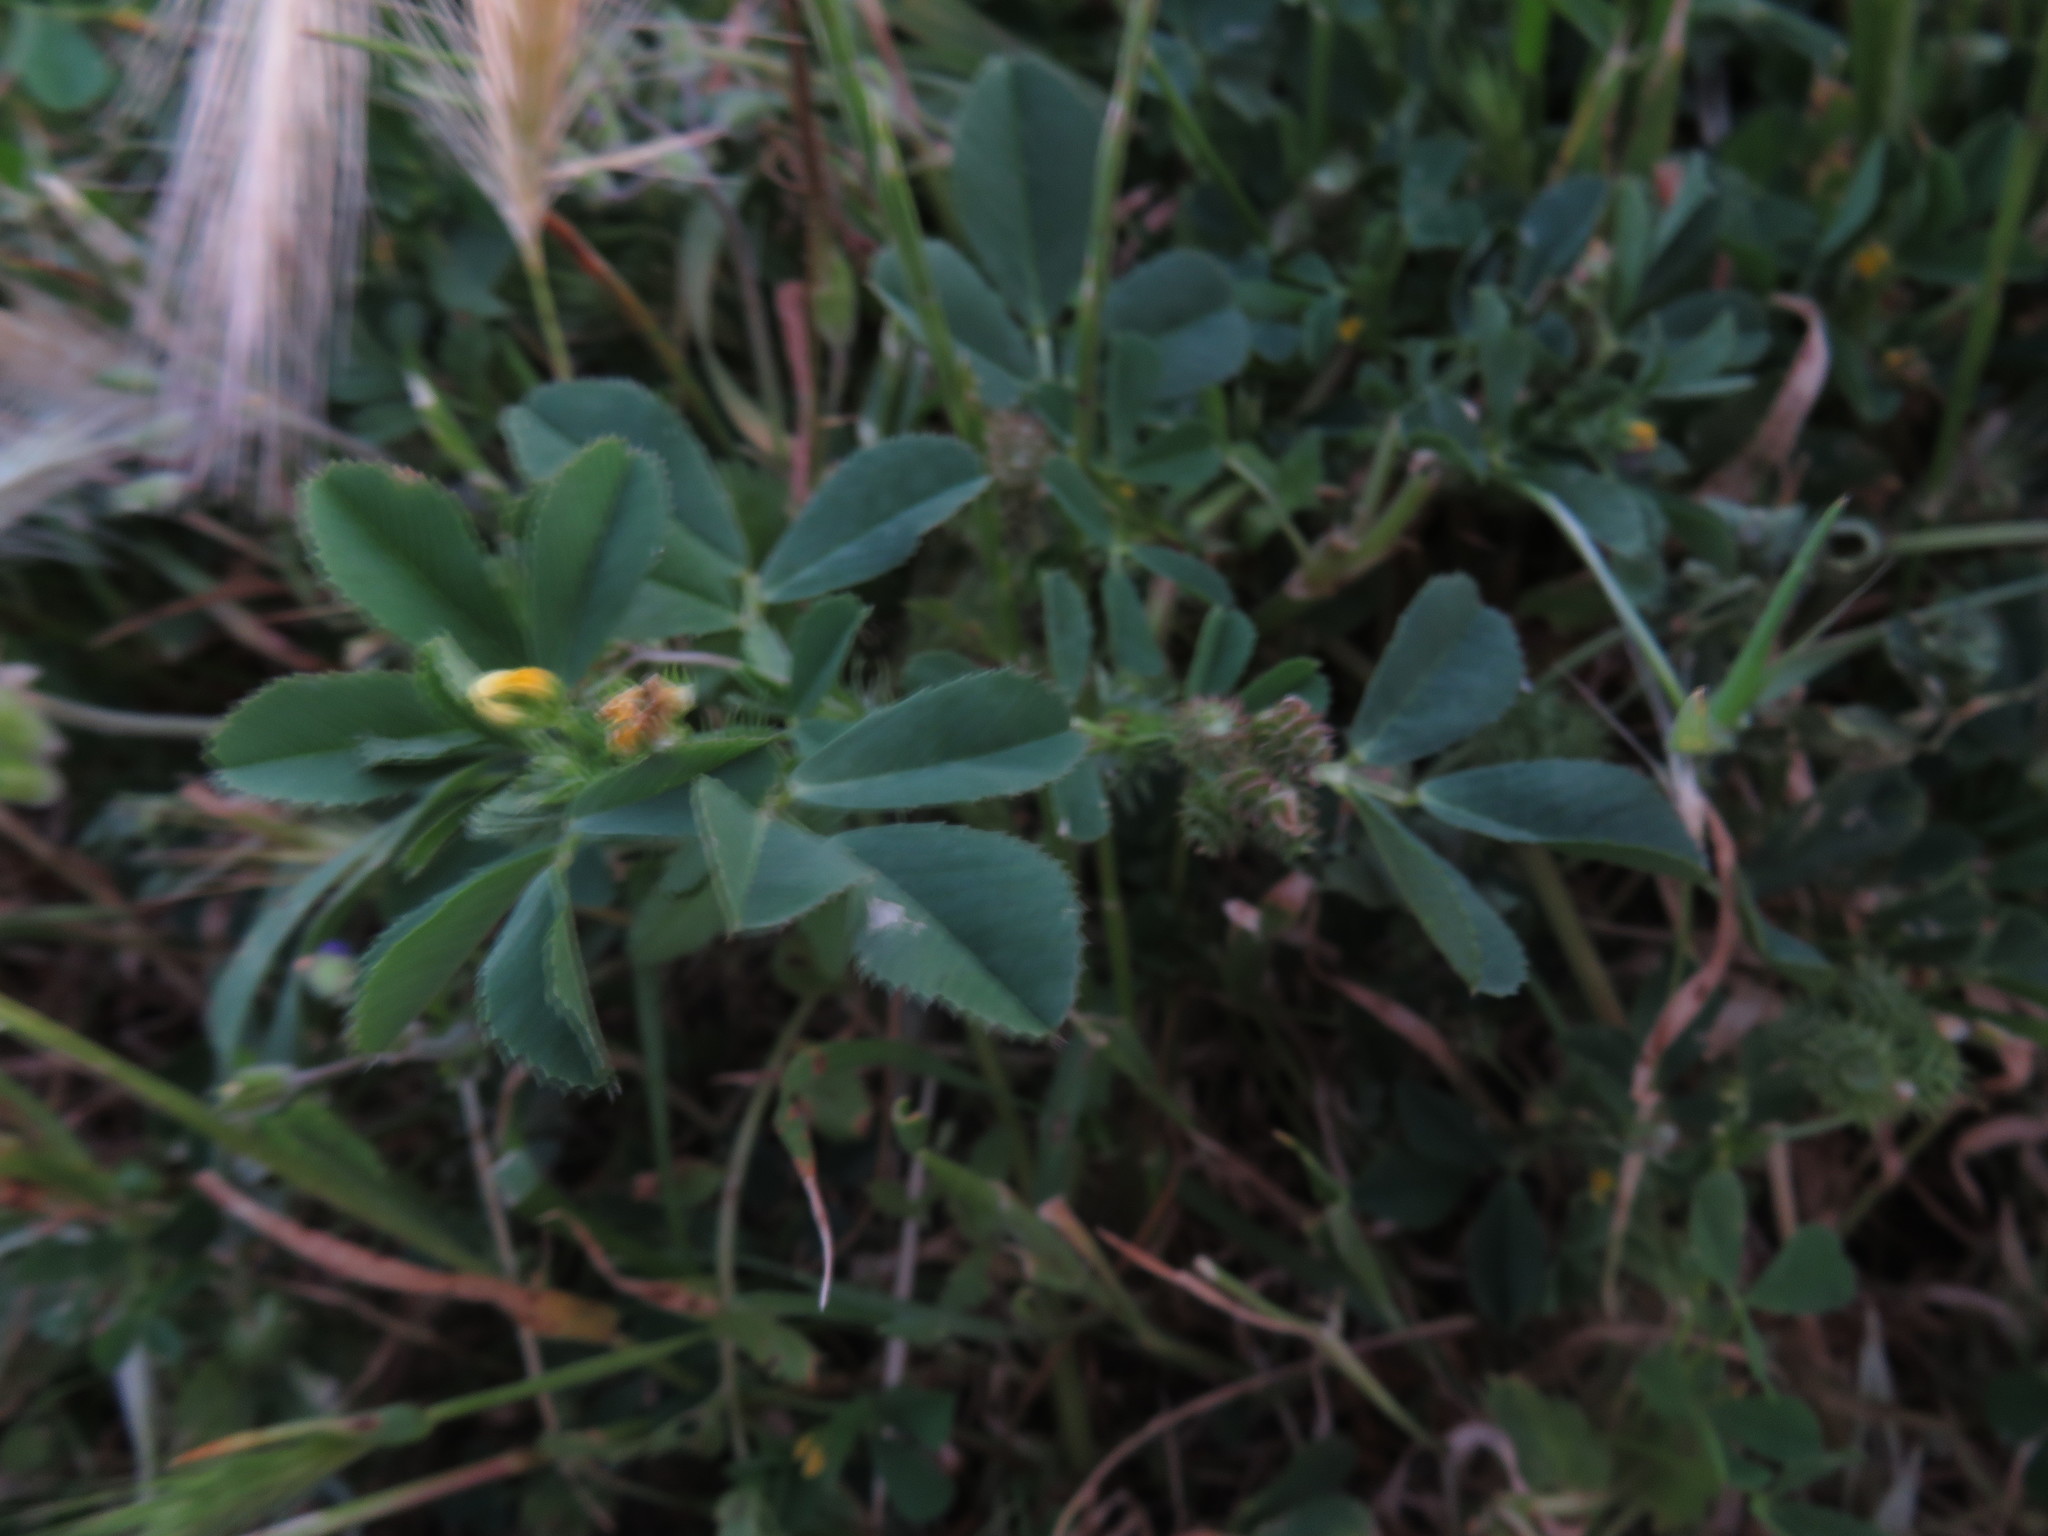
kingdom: Plantae
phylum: Tracheophyta
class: Magnoliopsida
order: Fabales
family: Fabaceae
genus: Medicago
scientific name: Medicago polymorpha
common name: Burclover
